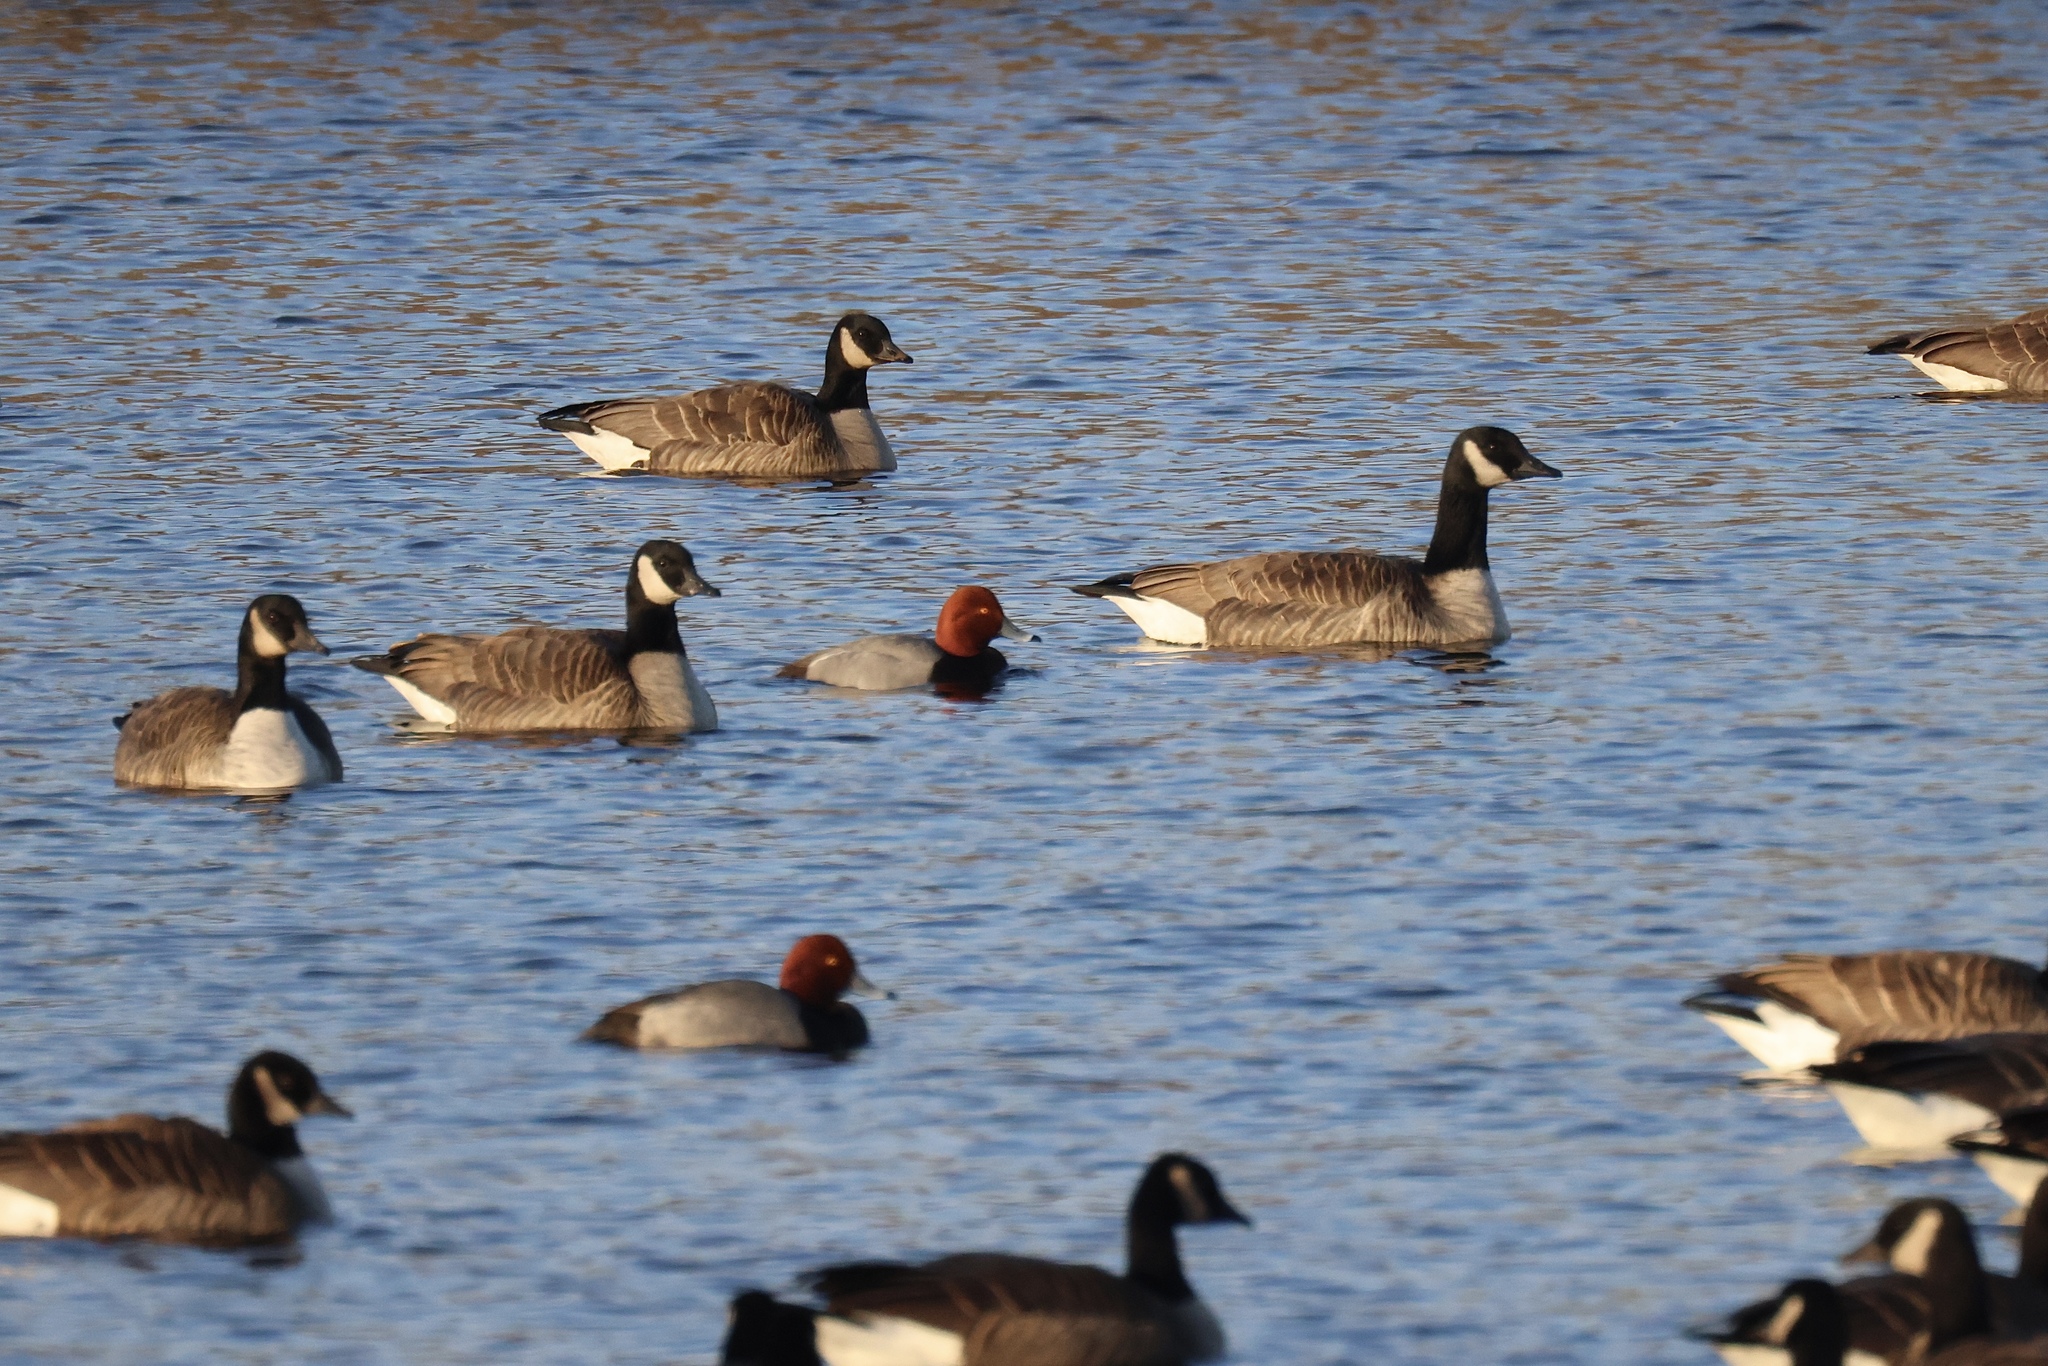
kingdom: Animalia
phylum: Chordata
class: Aves
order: Anseriformes
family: Anatidae
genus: Aythya
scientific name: Aythya americana
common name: Redhead
